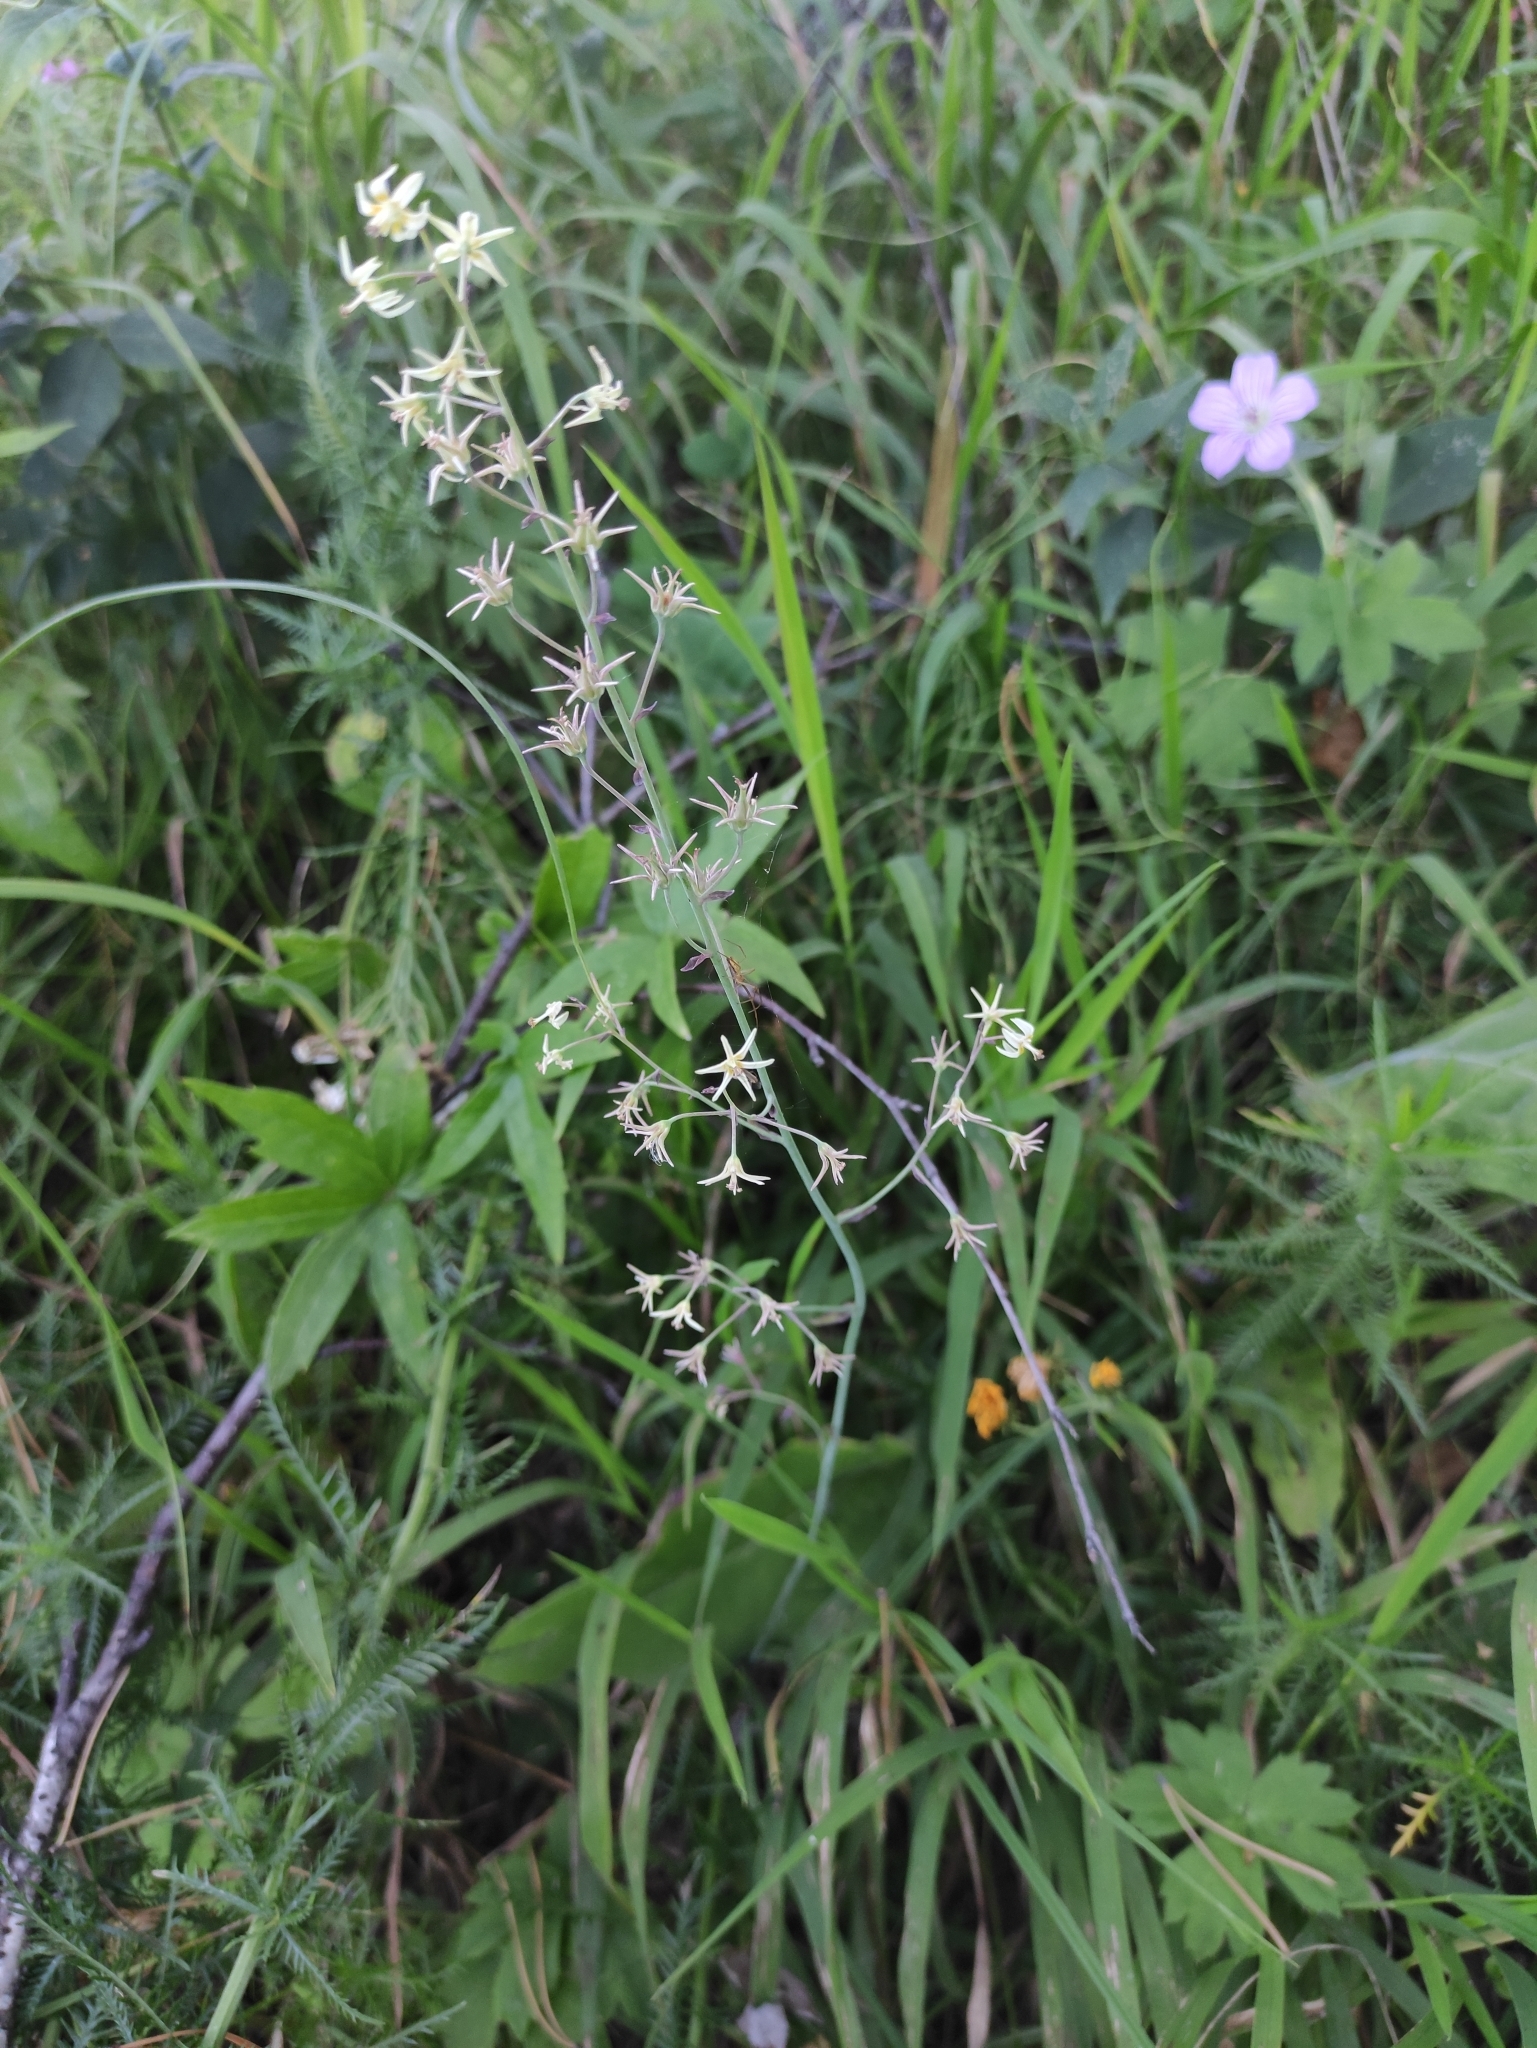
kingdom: Plantae
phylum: Tracheophyta
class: Liliopsida
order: Liliales
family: Melanthiaceae
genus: Anticlea
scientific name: Anticlea sibirica
